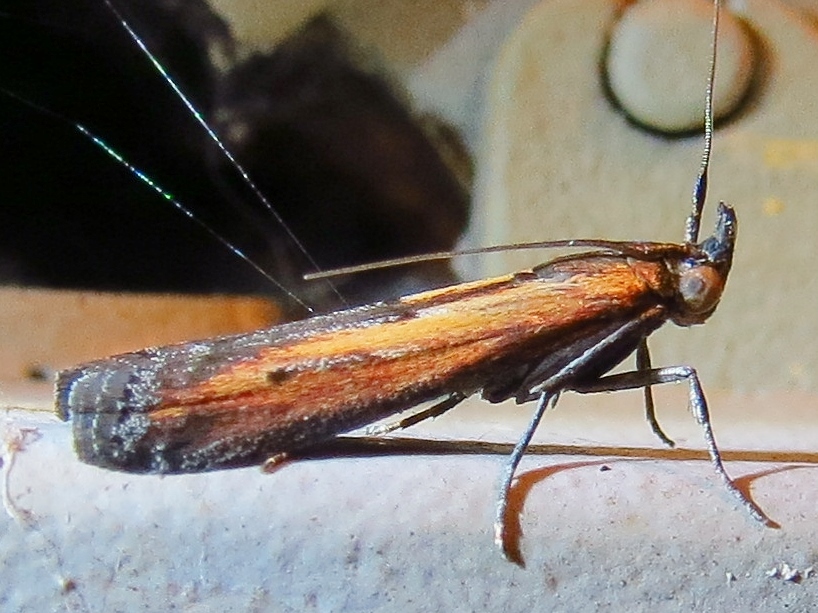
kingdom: Animalia
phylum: Arthropoda
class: Insecta
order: Lepidoptera
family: Pyralidae
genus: Elasmopalpus
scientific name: Elasmopalpus lignosella
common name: Lesser cornstalk borer
